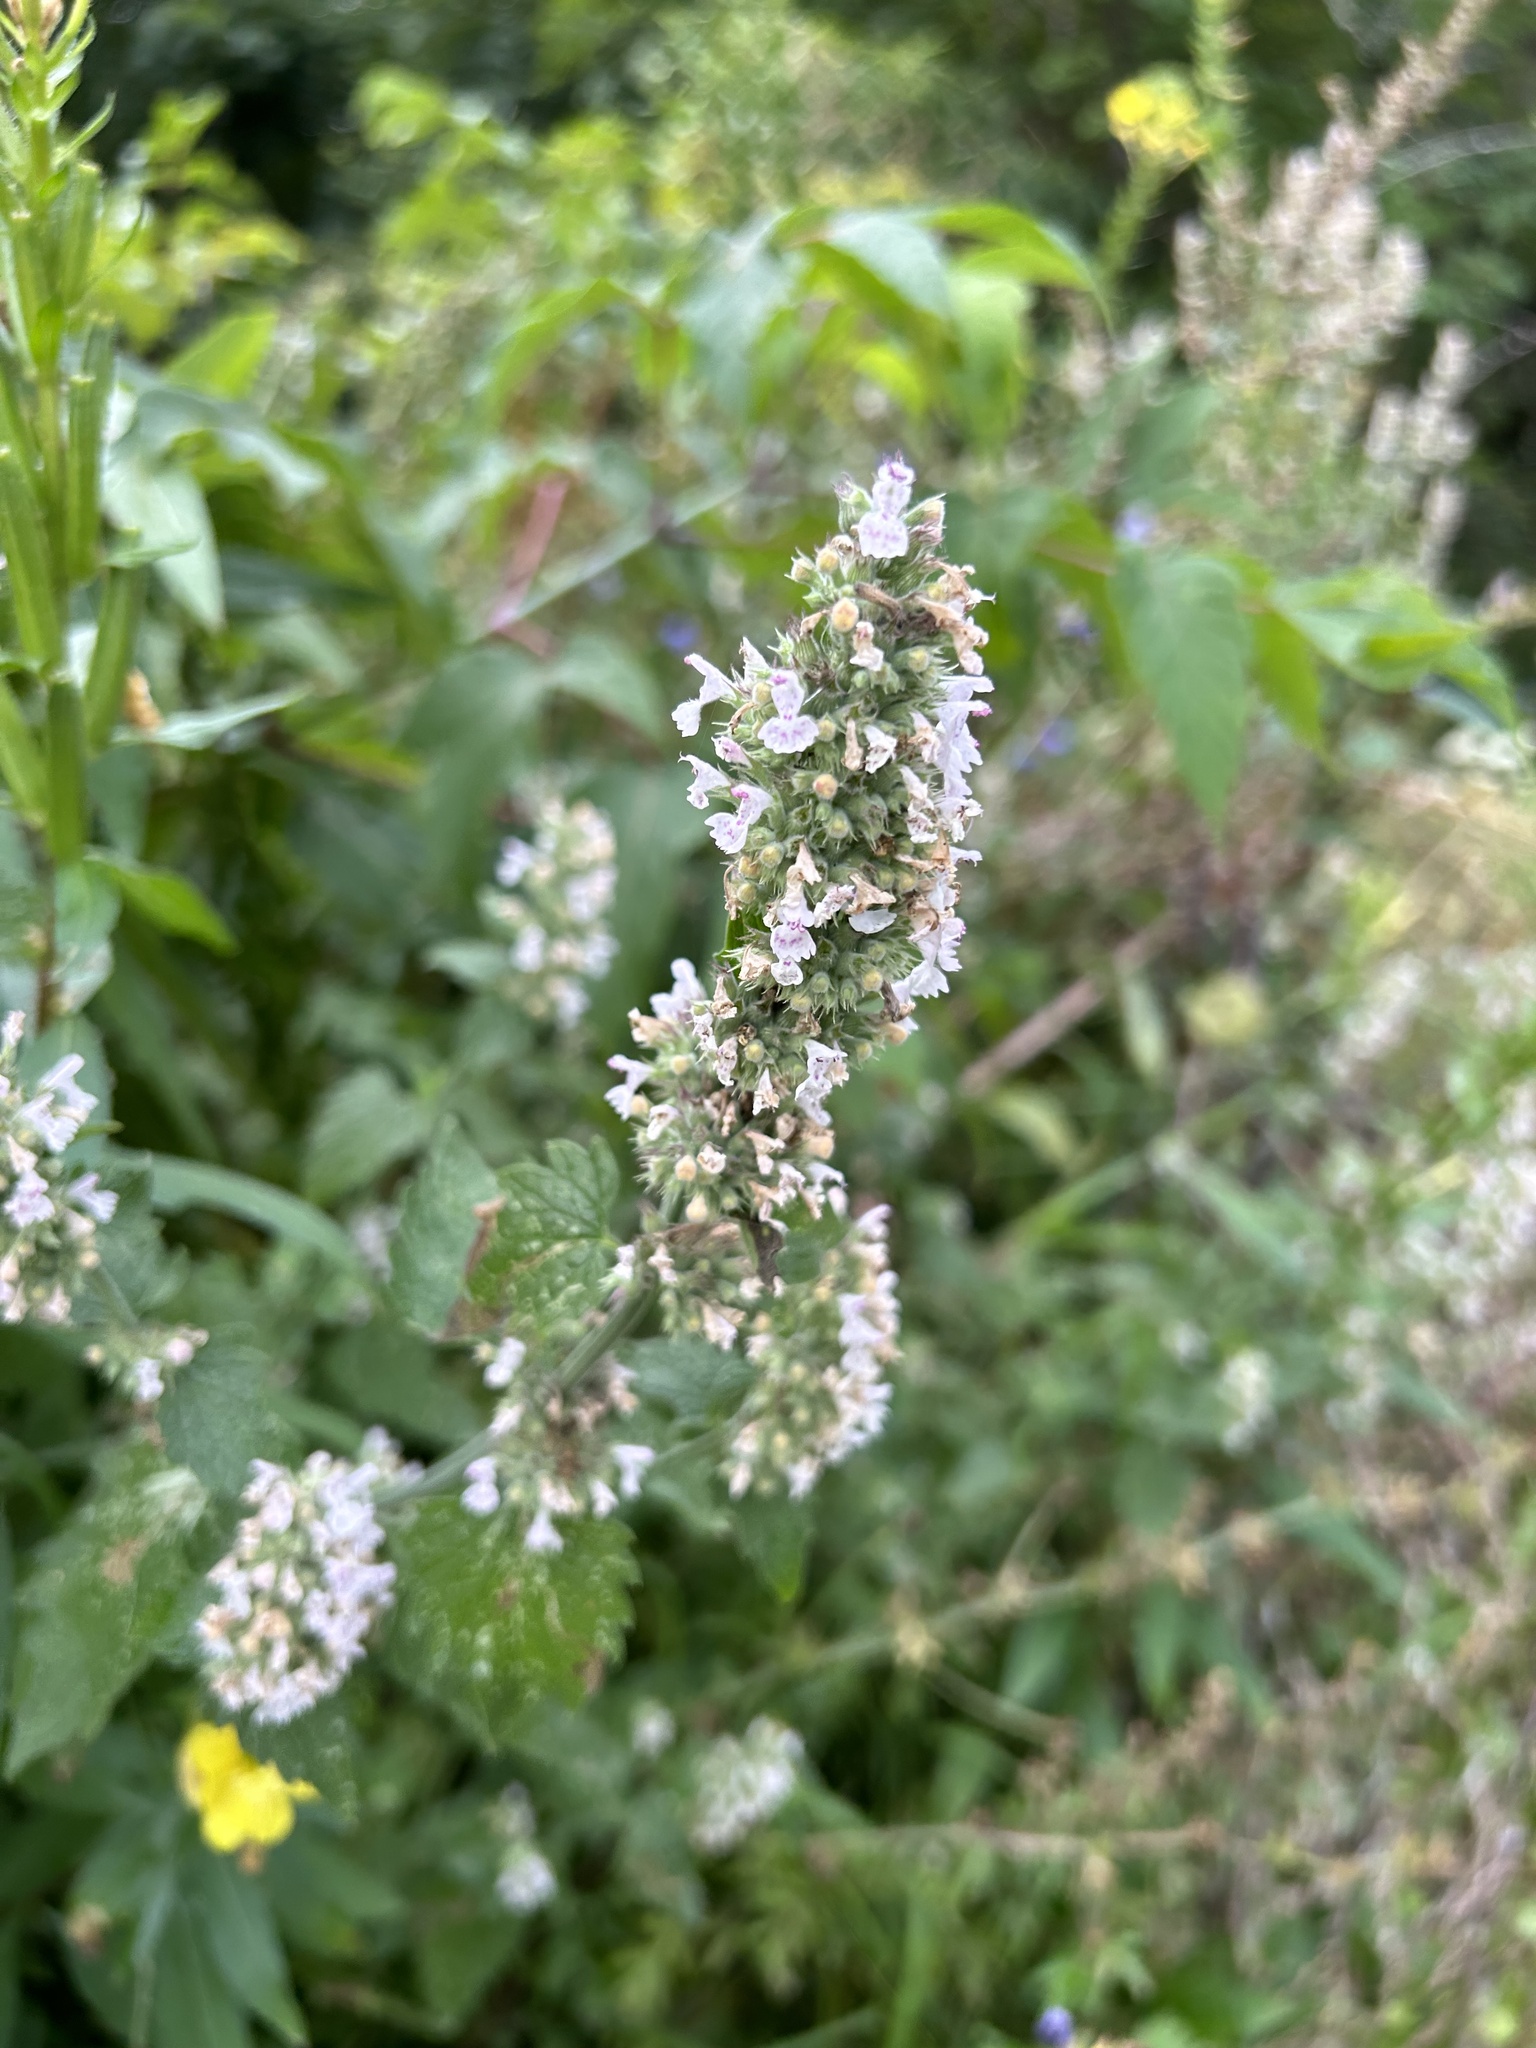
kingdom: Plantae
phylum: Tracheophyta
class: Magnoliopsida
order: Lamiales
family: Lamiaceae
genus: Nepeta
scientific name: Nepeta cataria
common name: Catnip
